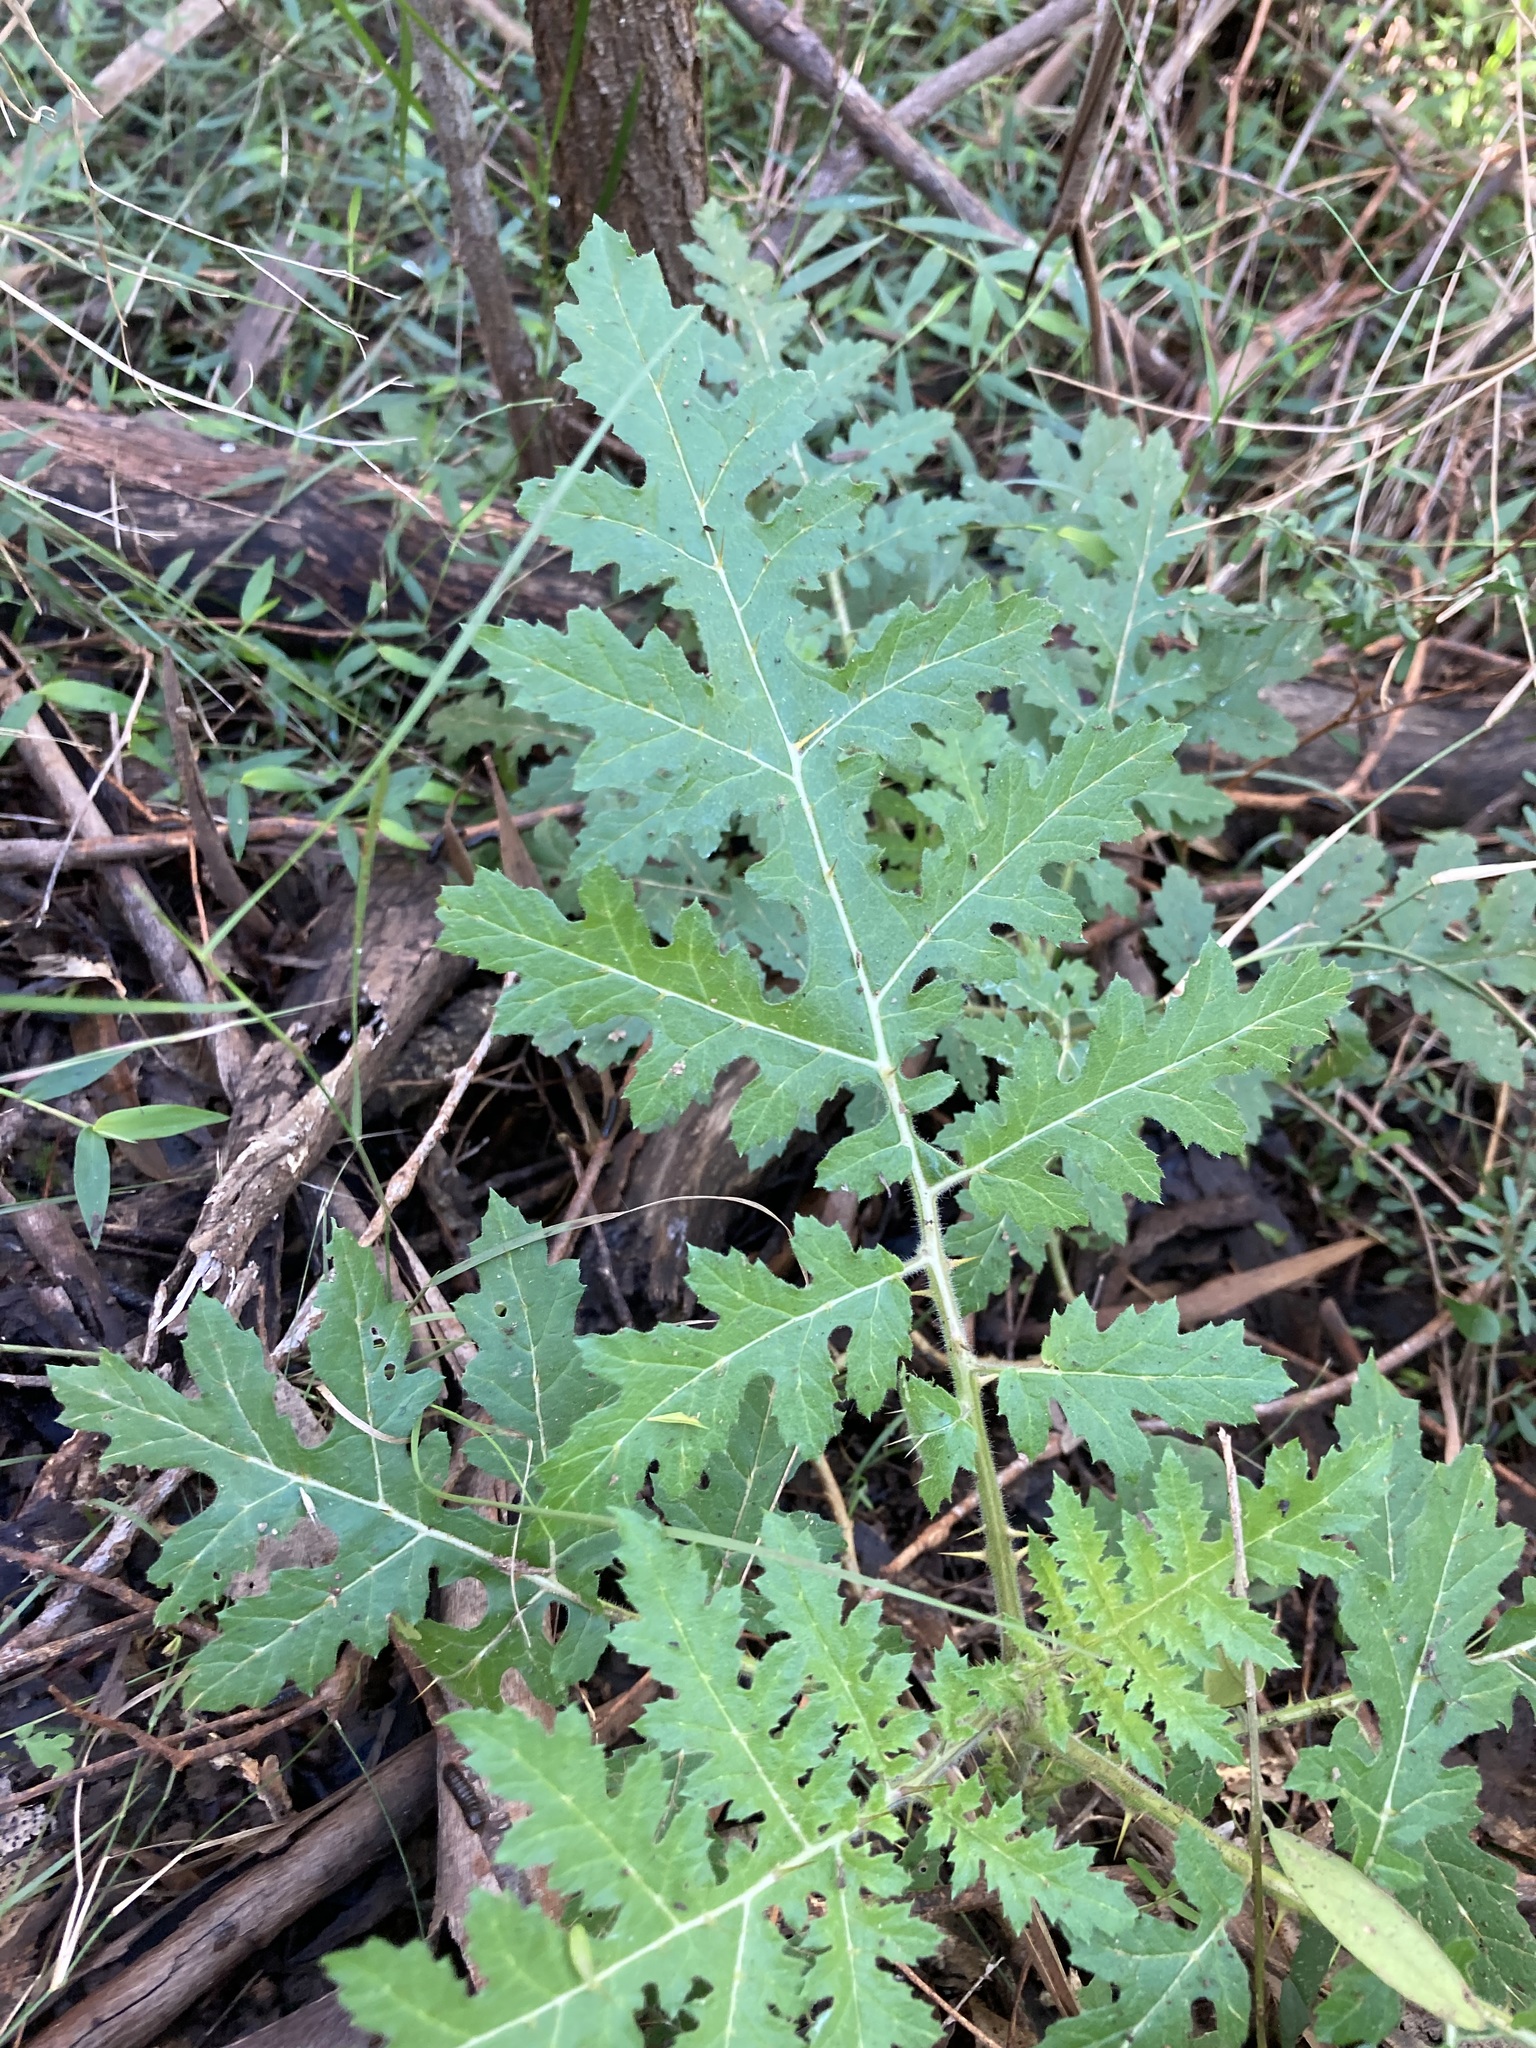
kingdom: Plantae
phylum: Tracheophyta
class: Magnoliopsida
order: Solanales
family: Solanaceae
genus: Solanum
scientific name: Solanum sisymbriifolium
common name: Red buffalo-bur
